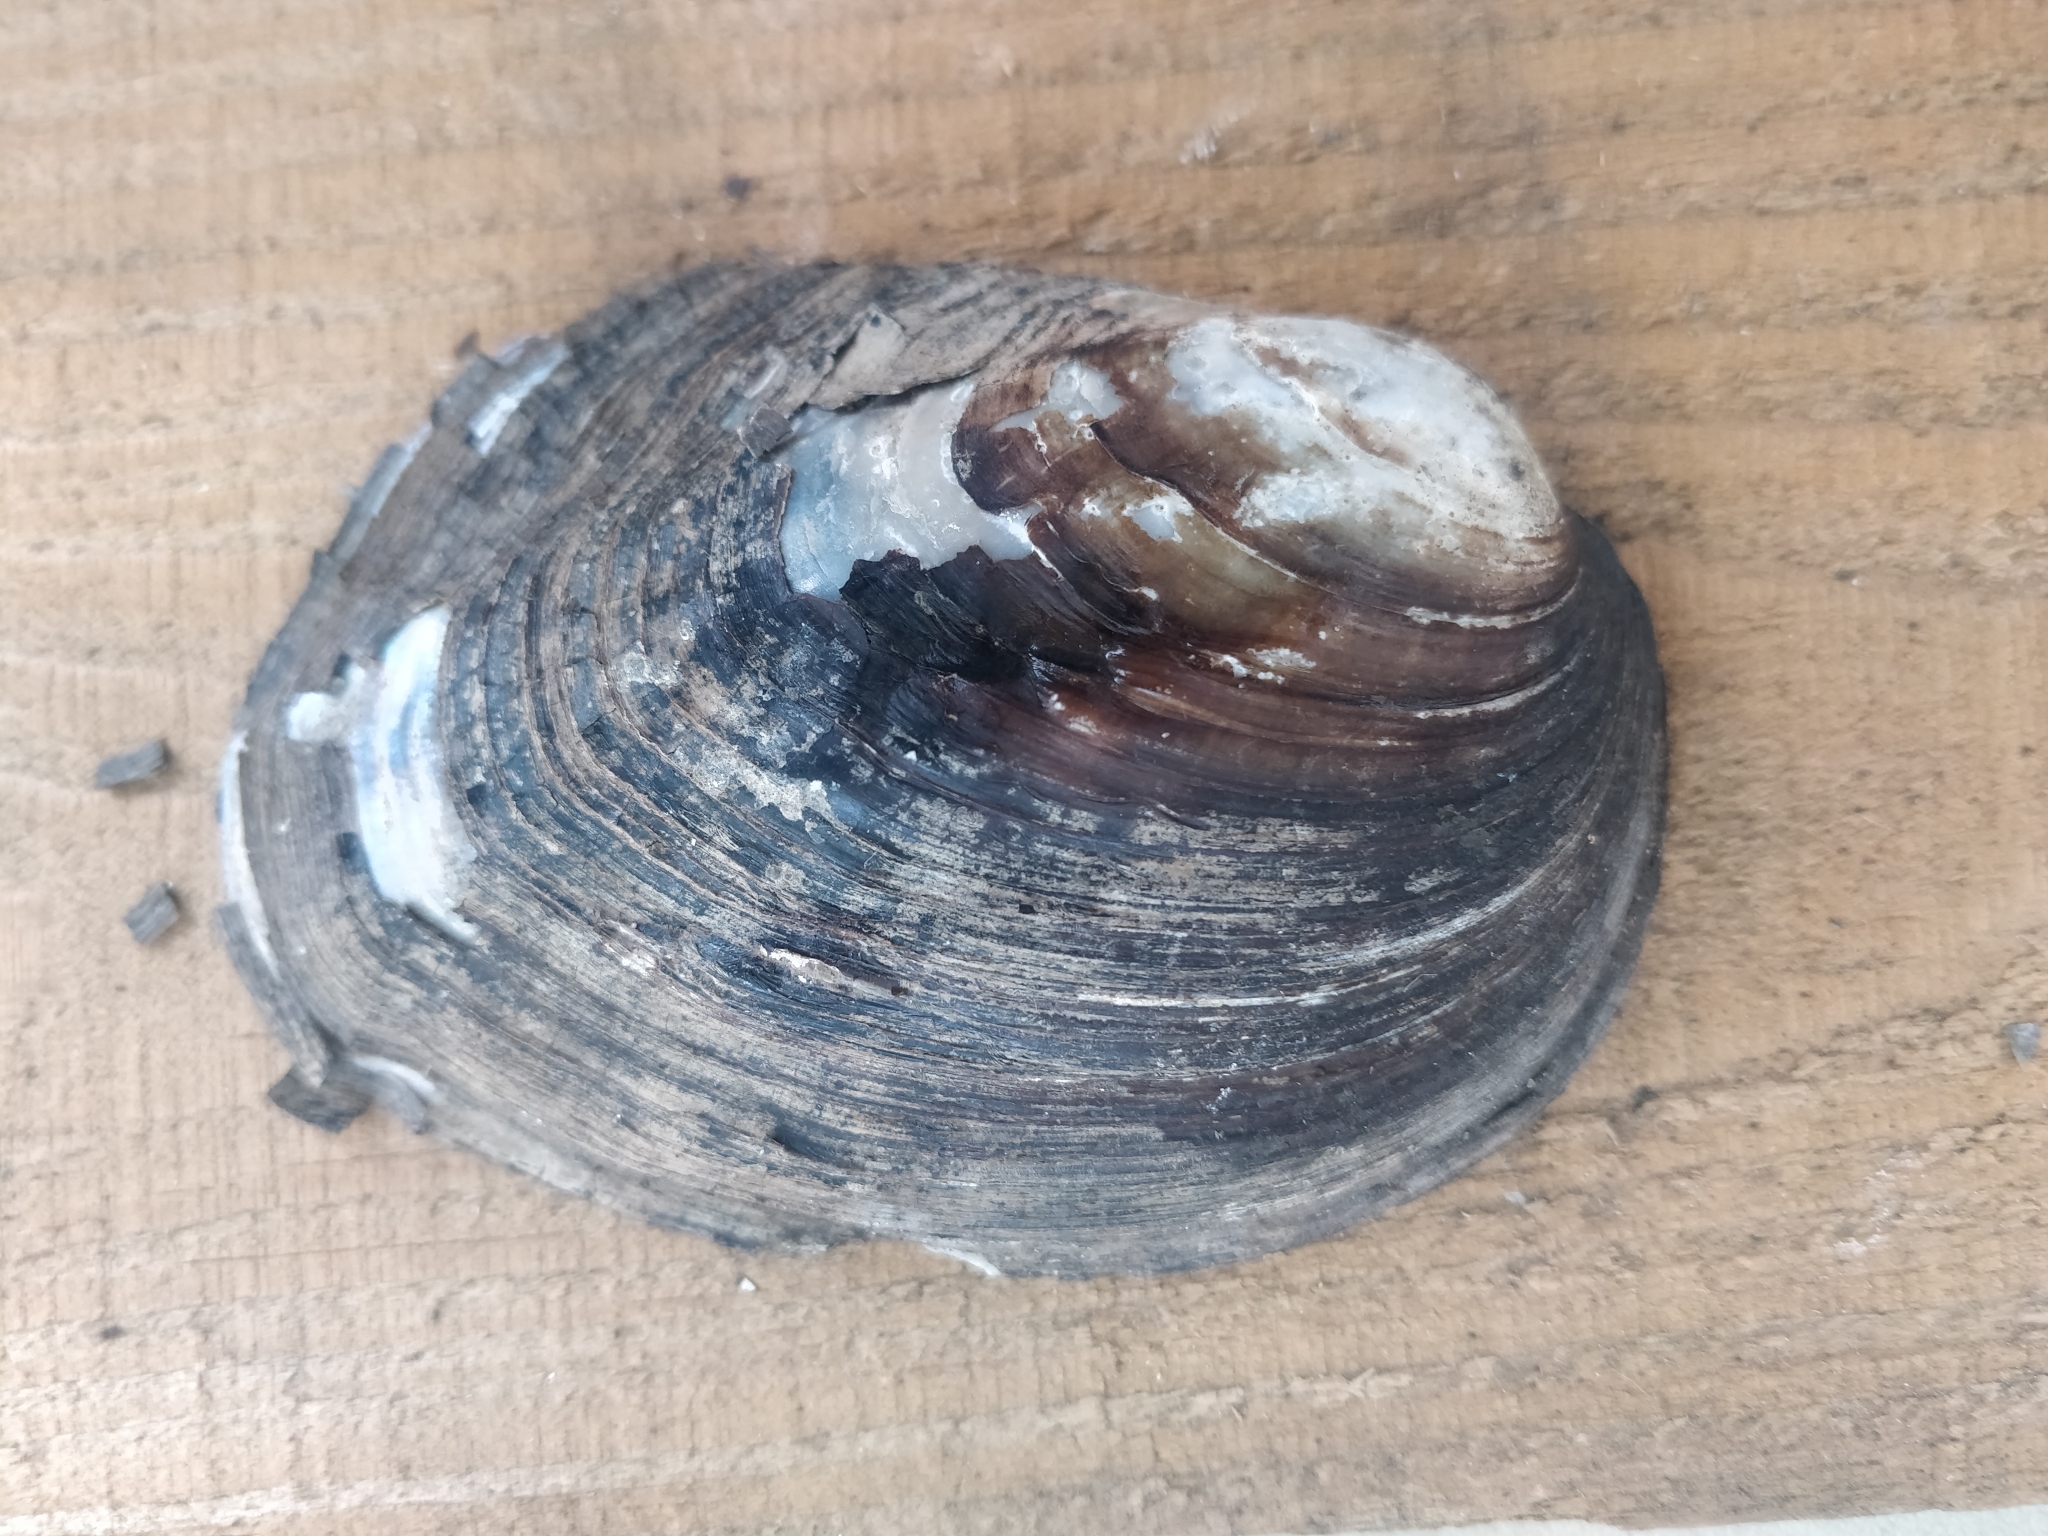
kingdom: Animalia
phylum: Mollusca
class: Bivalvia
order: Unionida
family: Unionidae
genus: Amblema
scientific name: Amblema plicata
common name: Threeridge
